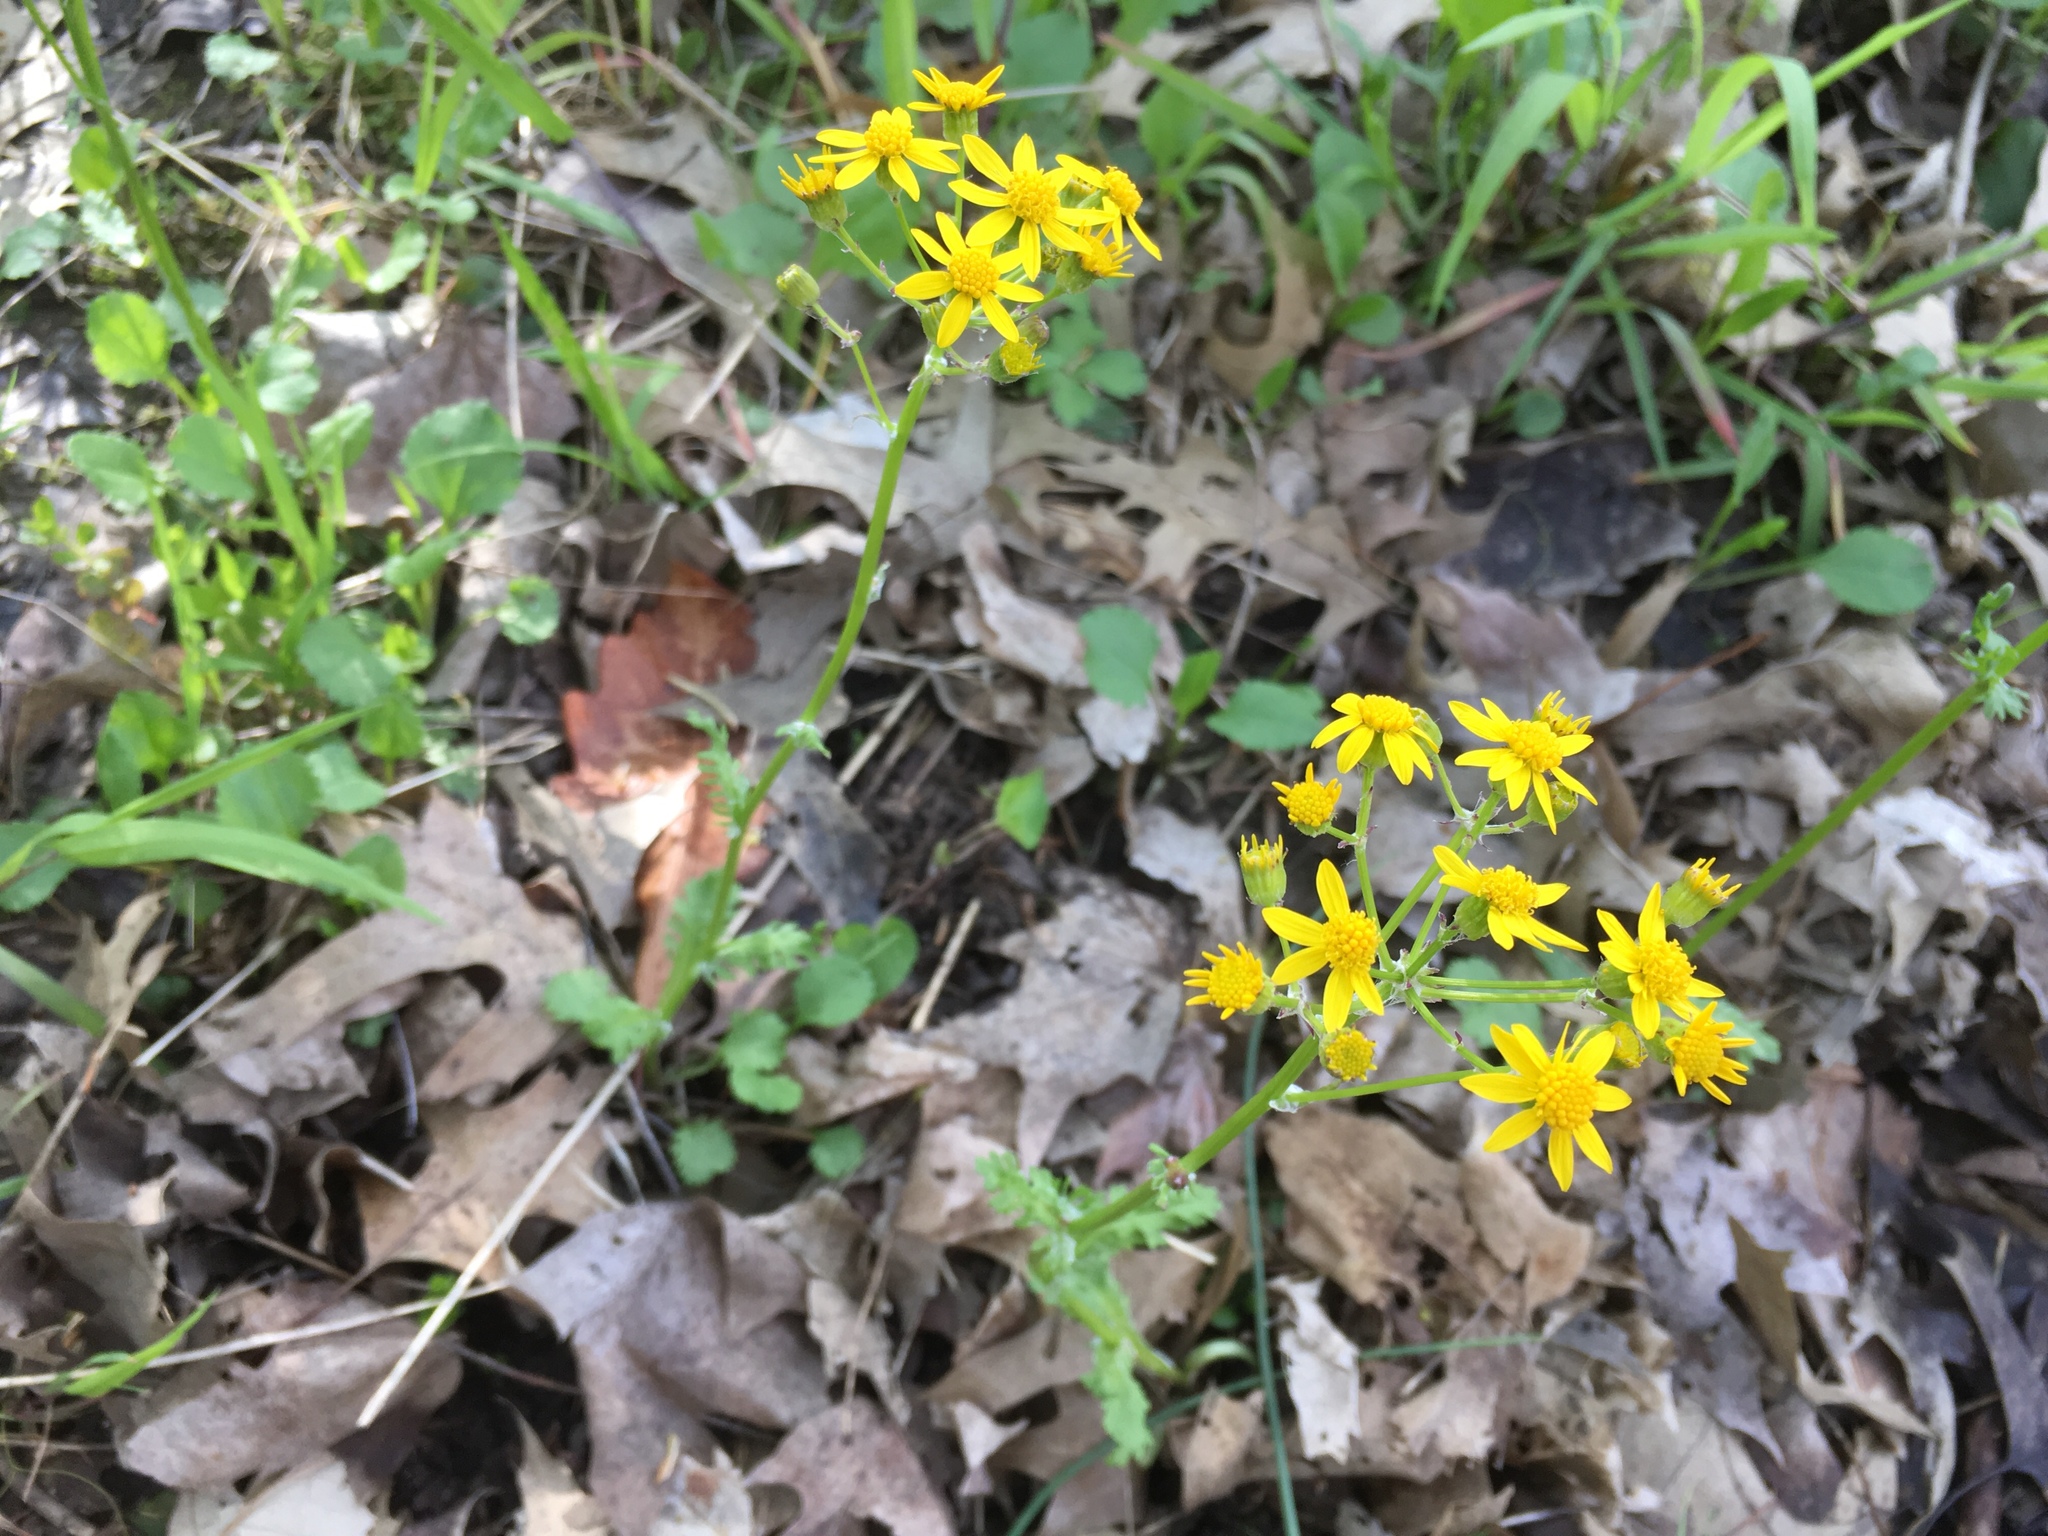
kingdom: Plantae
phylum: Tracheophyta
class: Magnoliopsida
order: Asterales
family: Asteraceae
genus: Packera
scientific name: Packera aurea
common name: Golden groundsel
